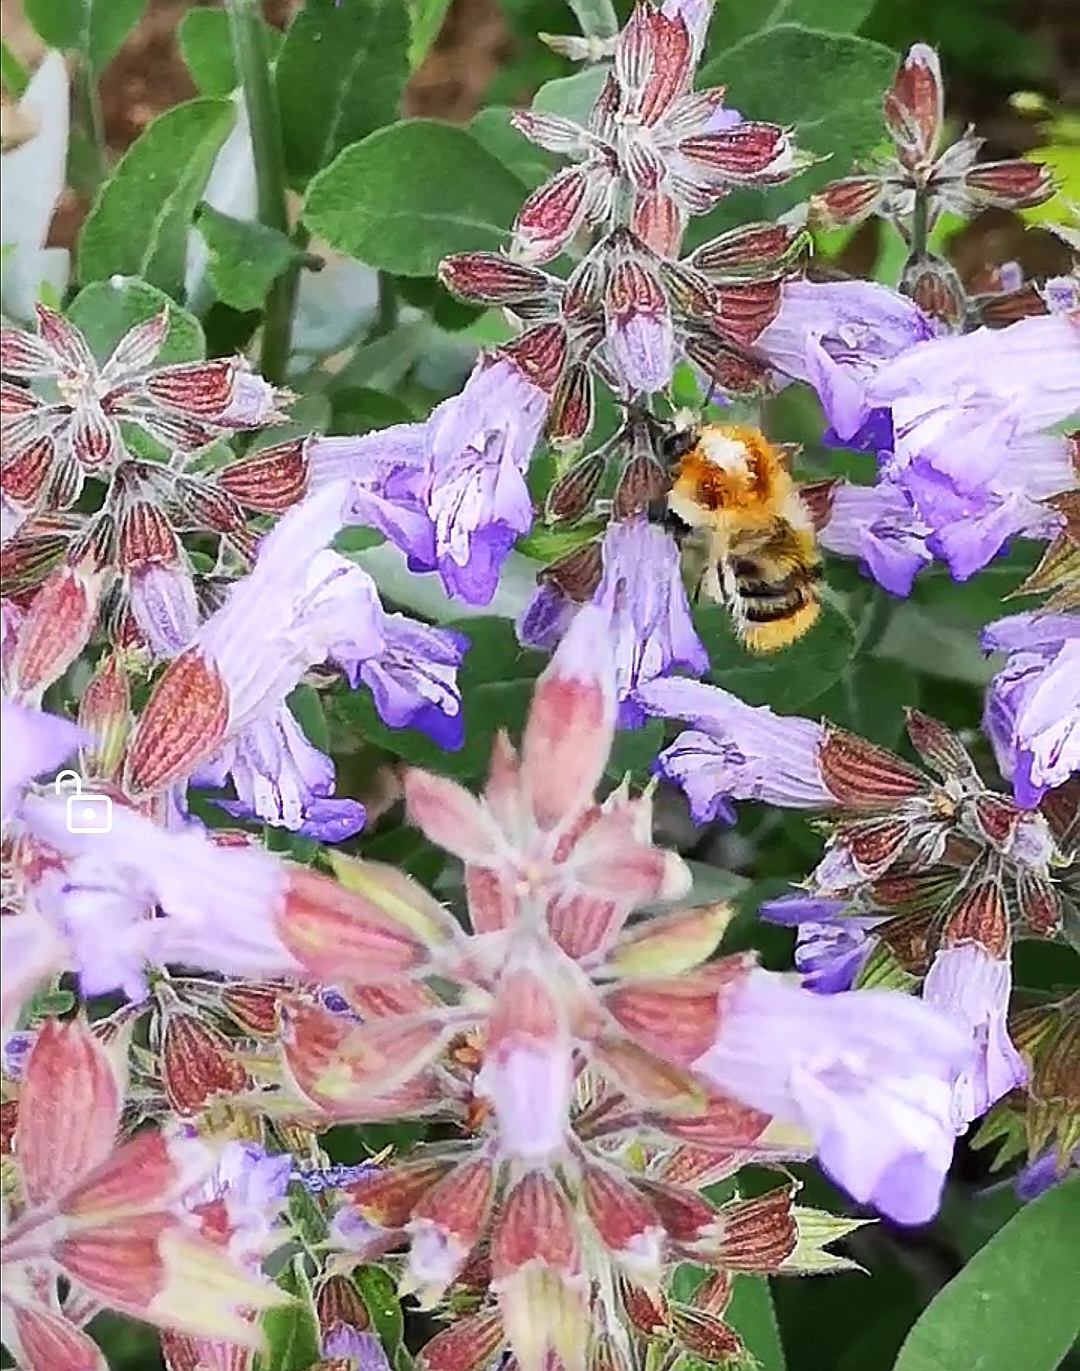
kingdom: Animalia
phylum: Arthropoda
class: Insecta
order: Hymenoptera
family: Apidae
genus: Bombus
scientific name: Bombus pascuorum
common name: Common carder bee
